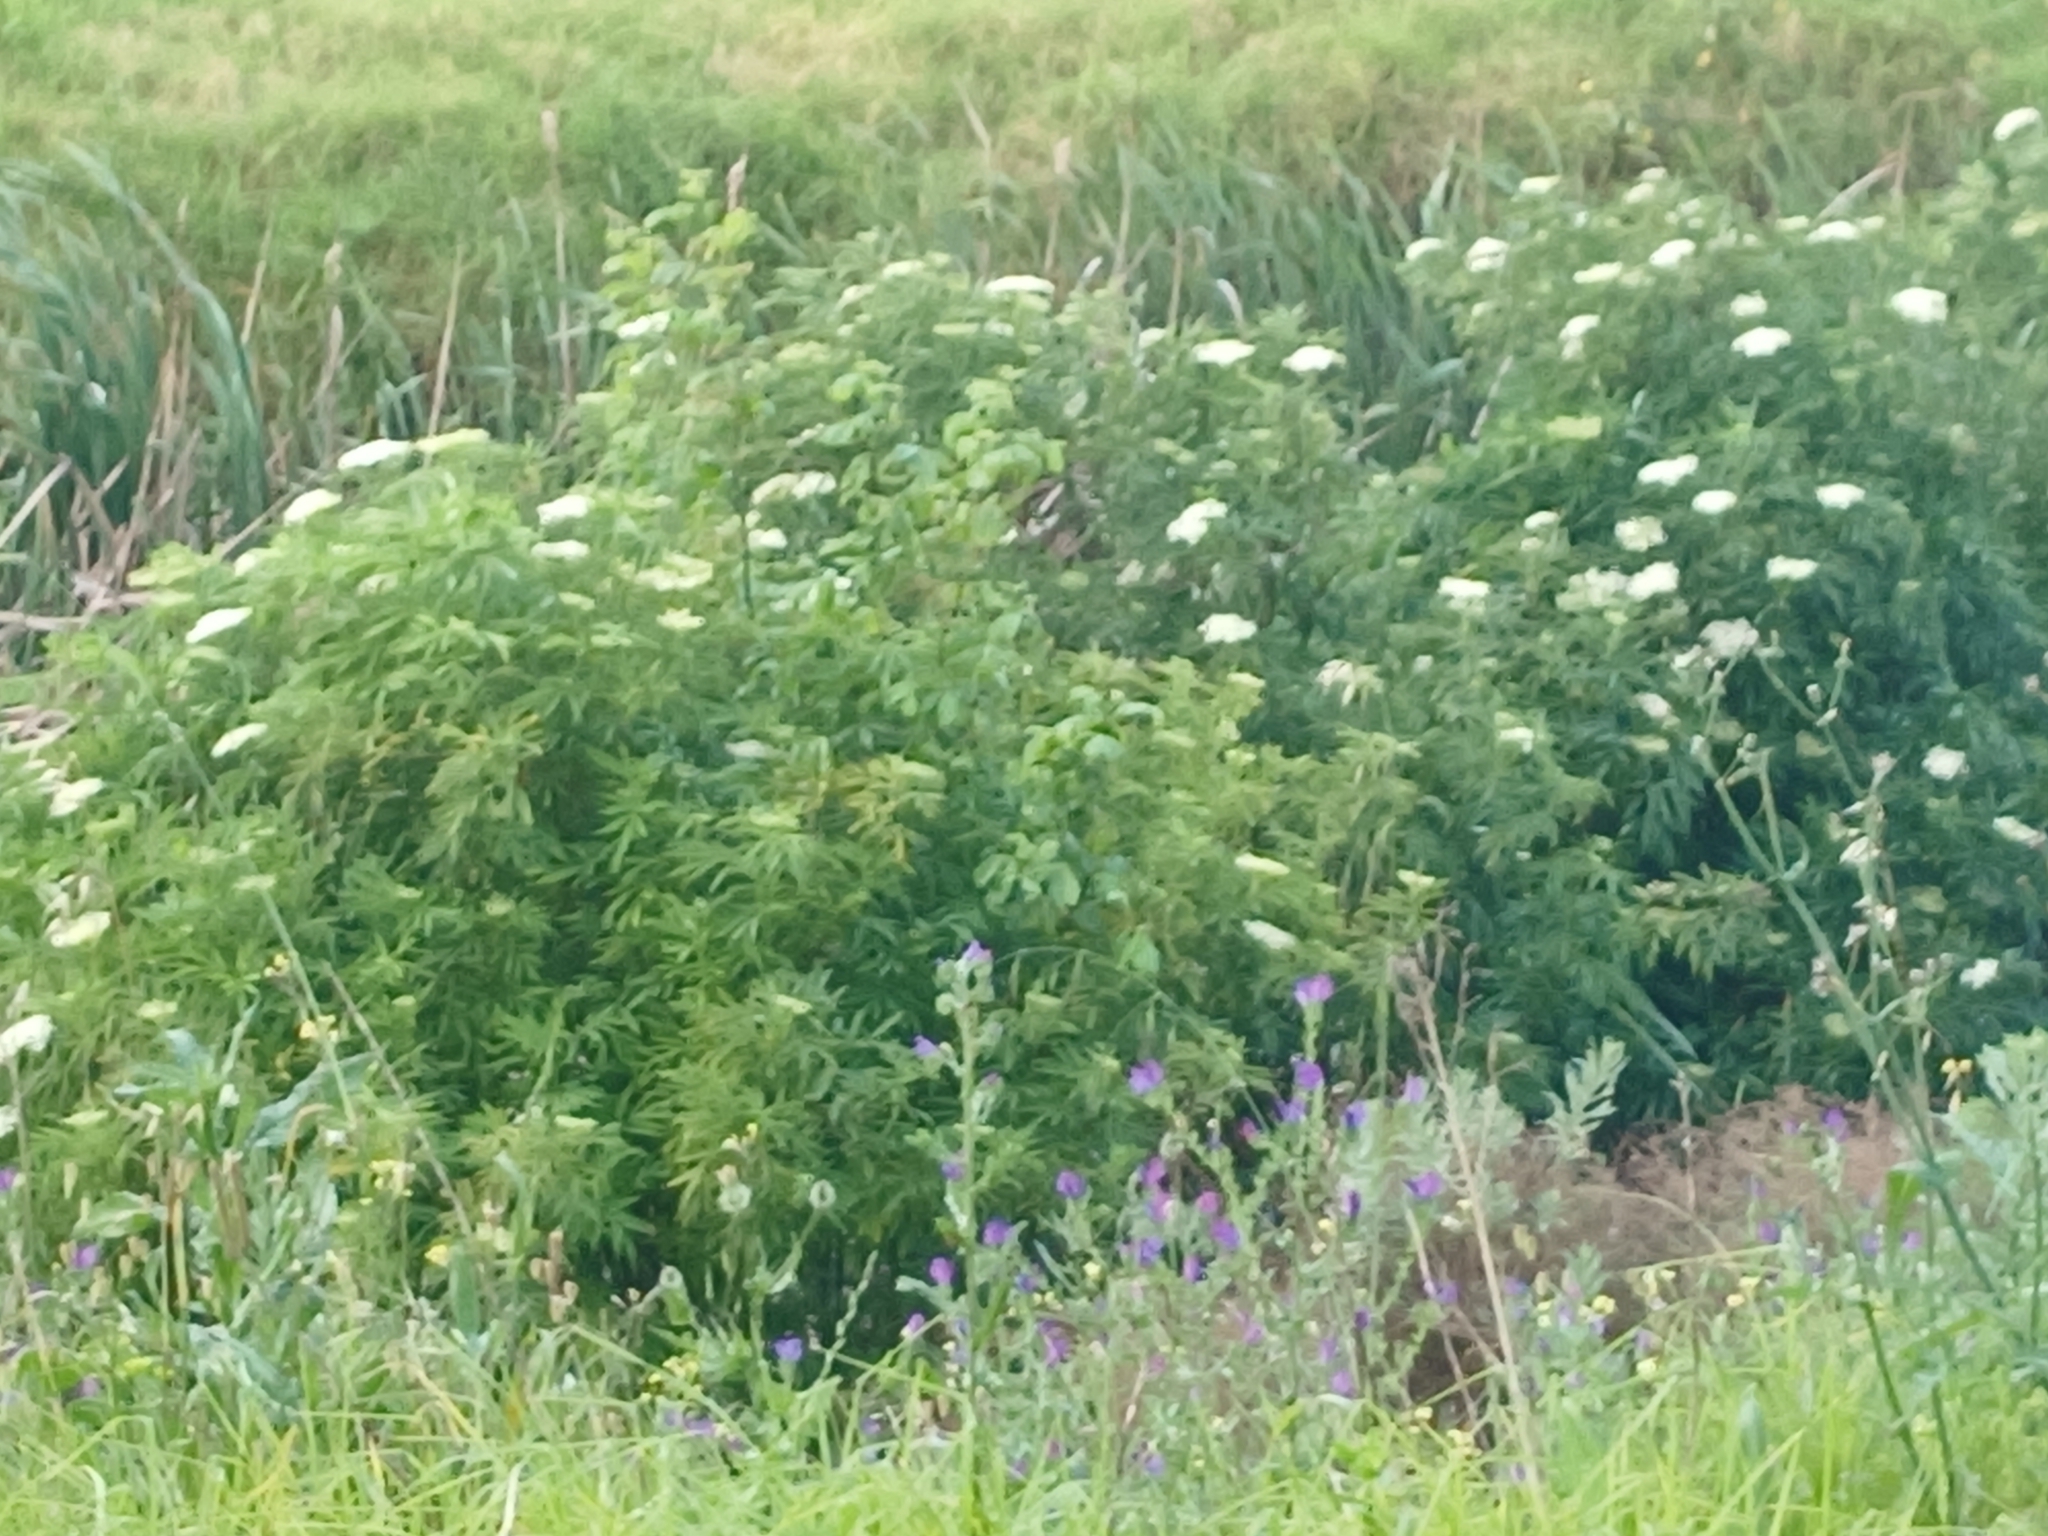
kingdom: Plantae
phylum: Tracheophyta
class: Magnoliopsida
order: Dipsacales
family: Viburnaceae
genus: Sambucus
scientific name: Sambucus nigra
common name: Elder
